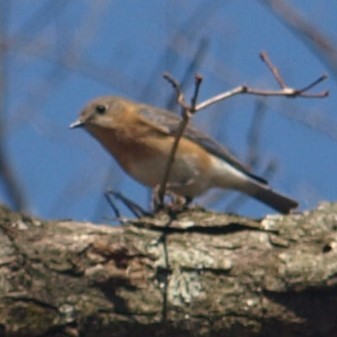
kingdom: Animalia
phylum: Chordata
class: Aves
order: Passeriformes
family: Turdidae
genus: Sialia
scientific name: Sialia sialis
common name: Eastern bluebird
